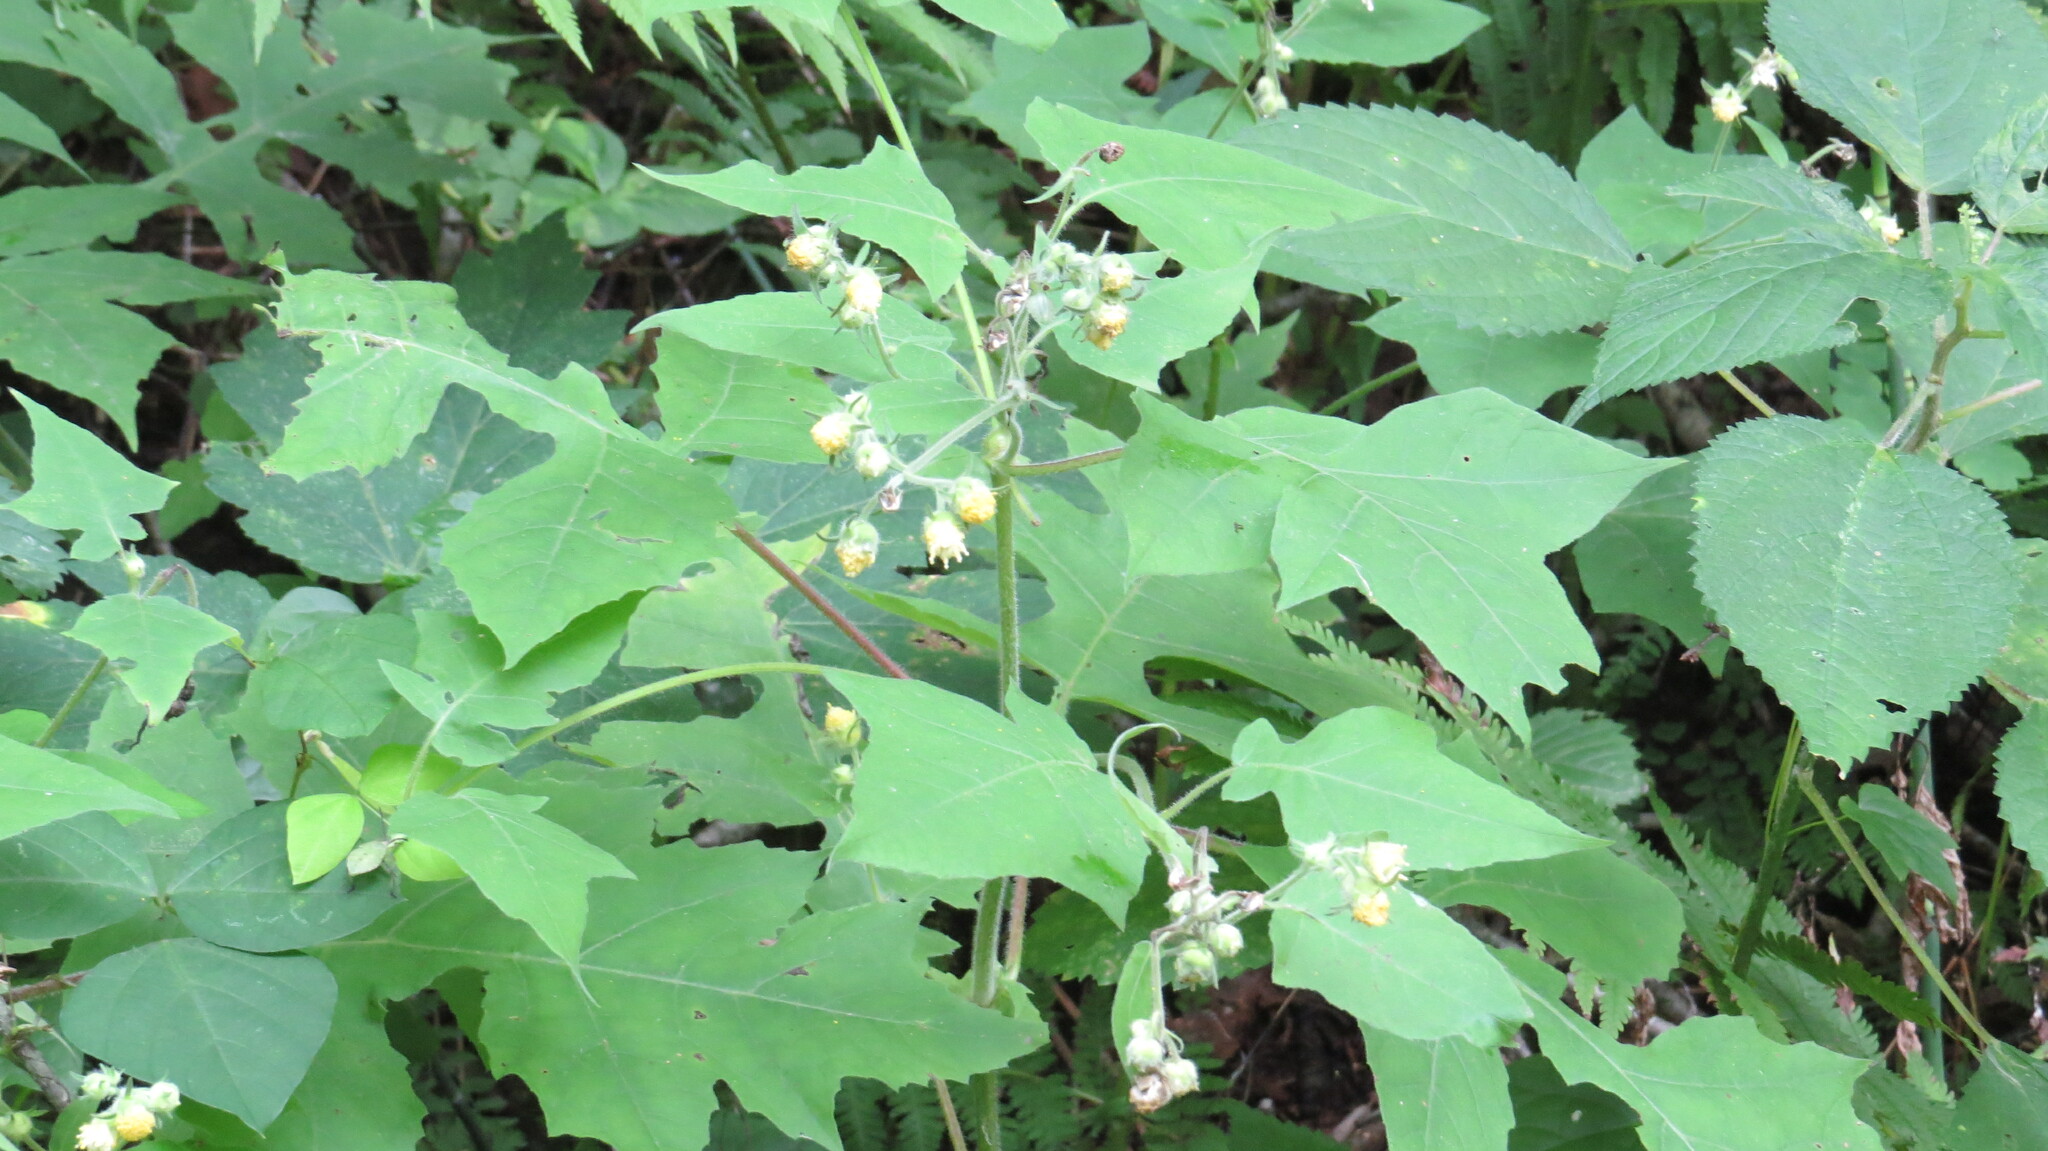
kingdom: Plantae
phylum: Tracheophyta
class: Magnoliopsida
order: Asterales
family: Asteraceae
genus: Polymnia
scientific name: Polymnia canadensis
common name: Pale-flowered leafcup
